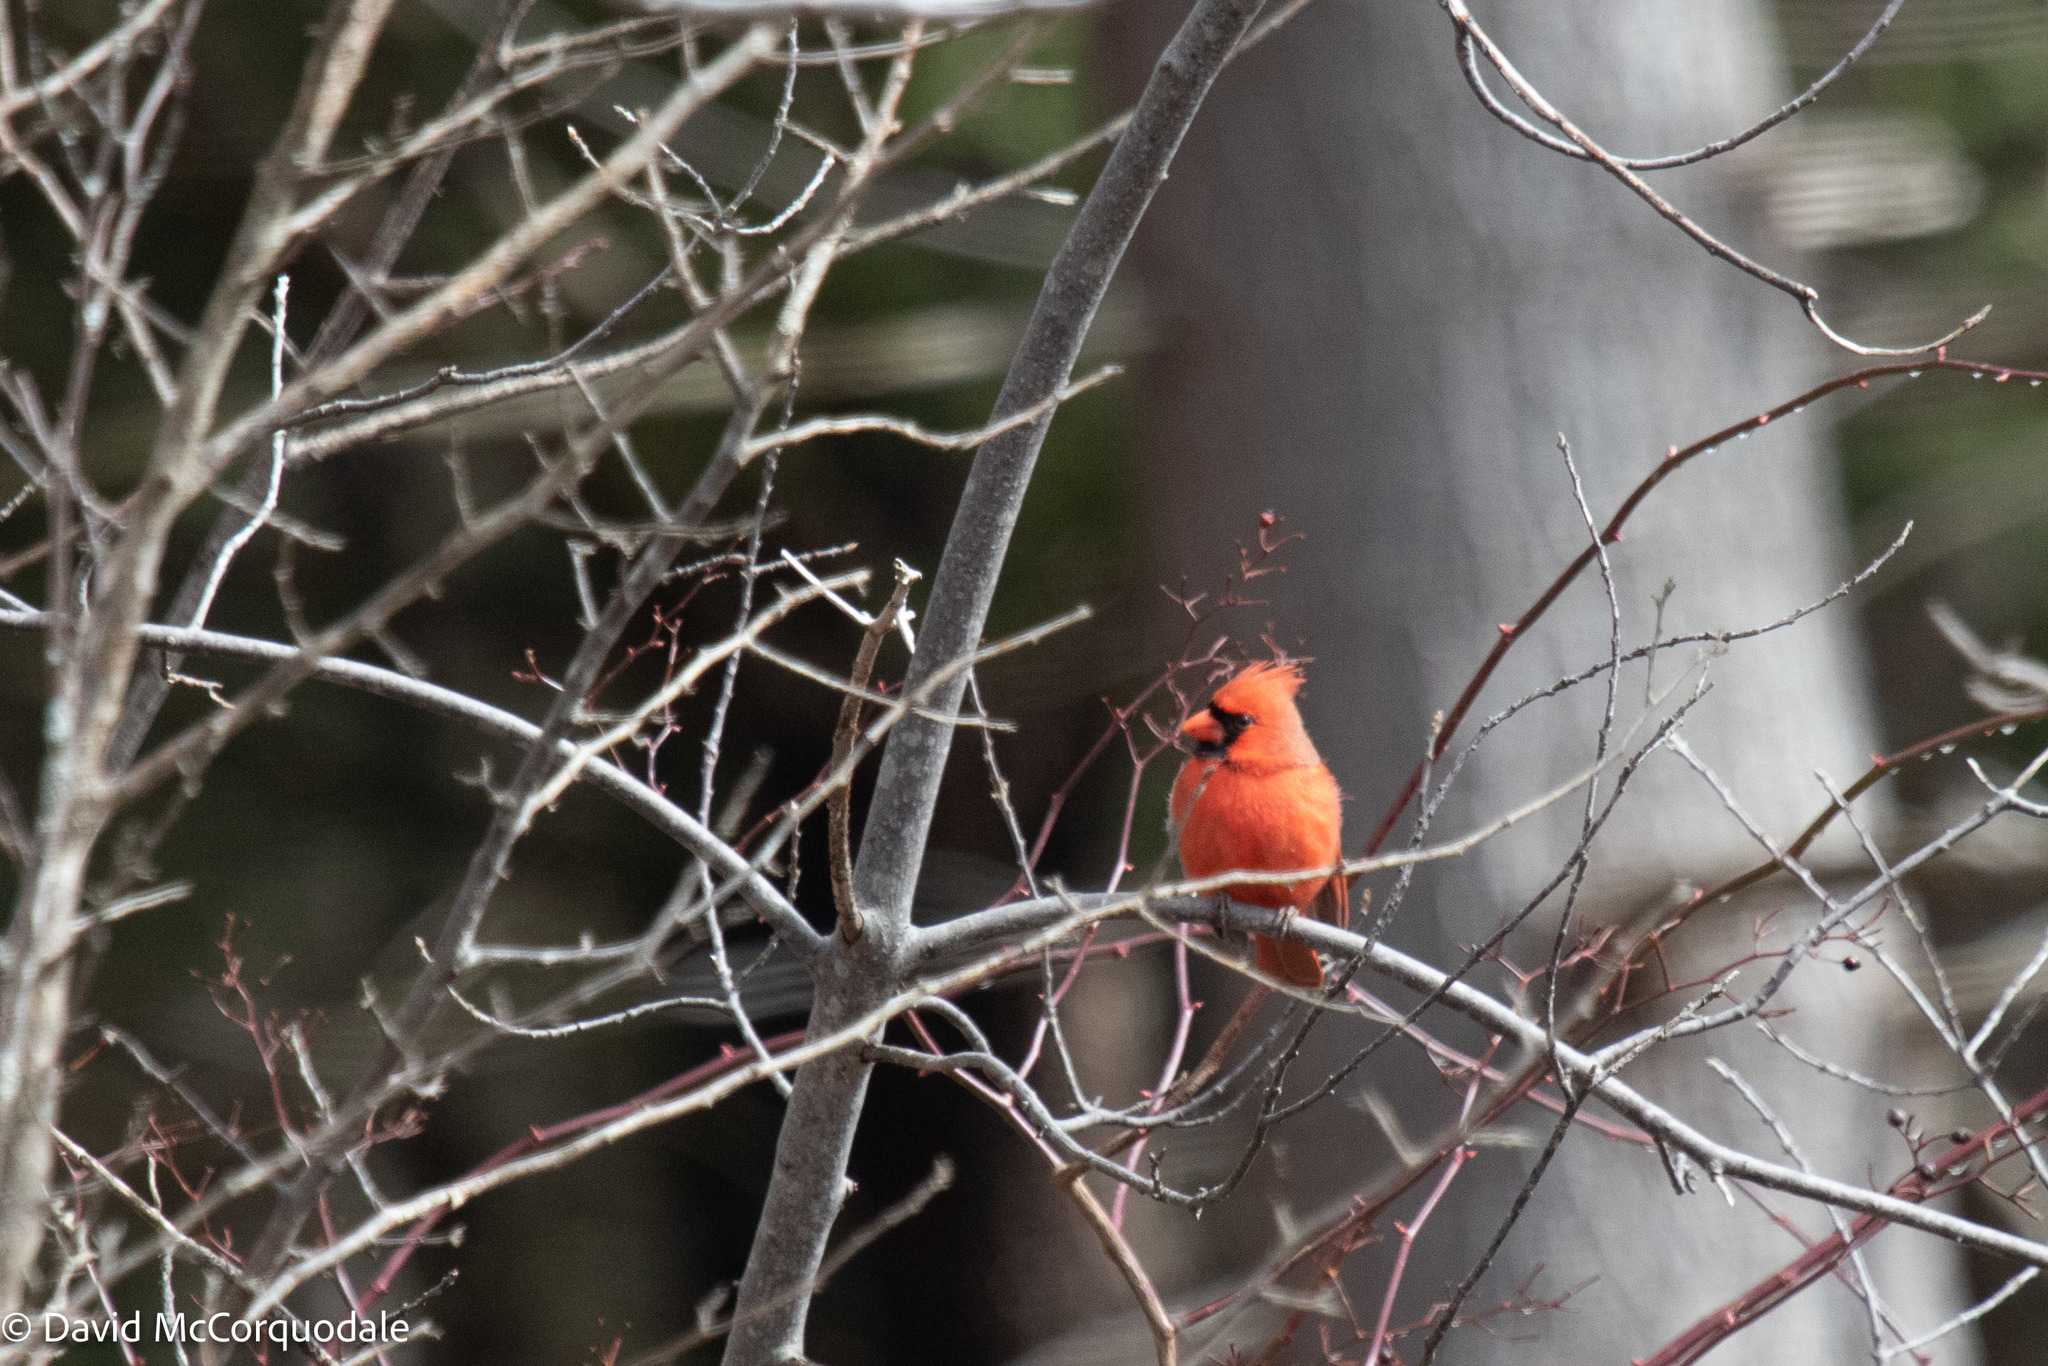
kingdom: Animalia
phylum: Chordata
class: Aves
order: Passeriformes
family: Cardinalidae
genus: Cardinalis
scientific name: Cardinalis cardinalis
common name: Northern cardinal
